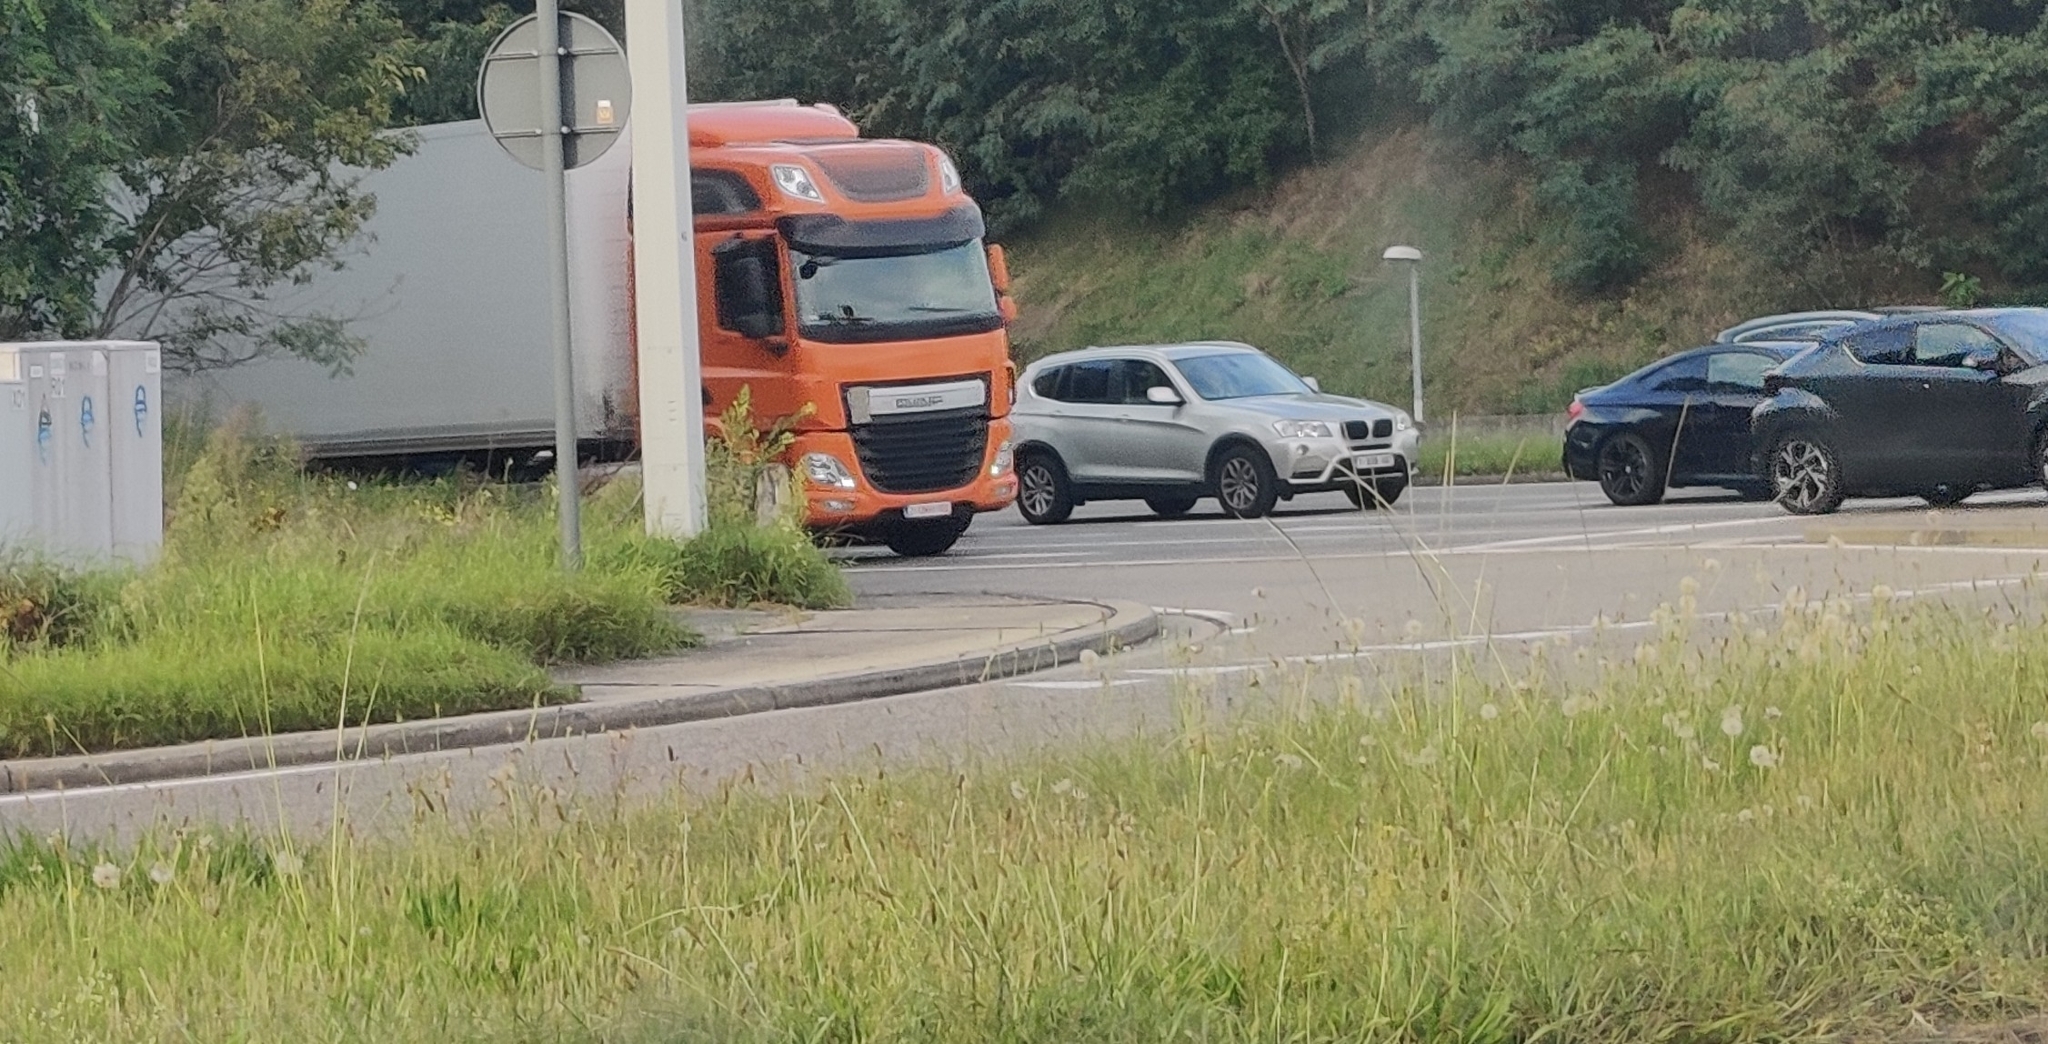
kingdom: Plantae
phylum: Tracheophyta
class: Liliopsida
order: Poales
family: Poaceae
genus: Sporobolus
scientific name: Sporobolus indicus
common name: Smut grass
